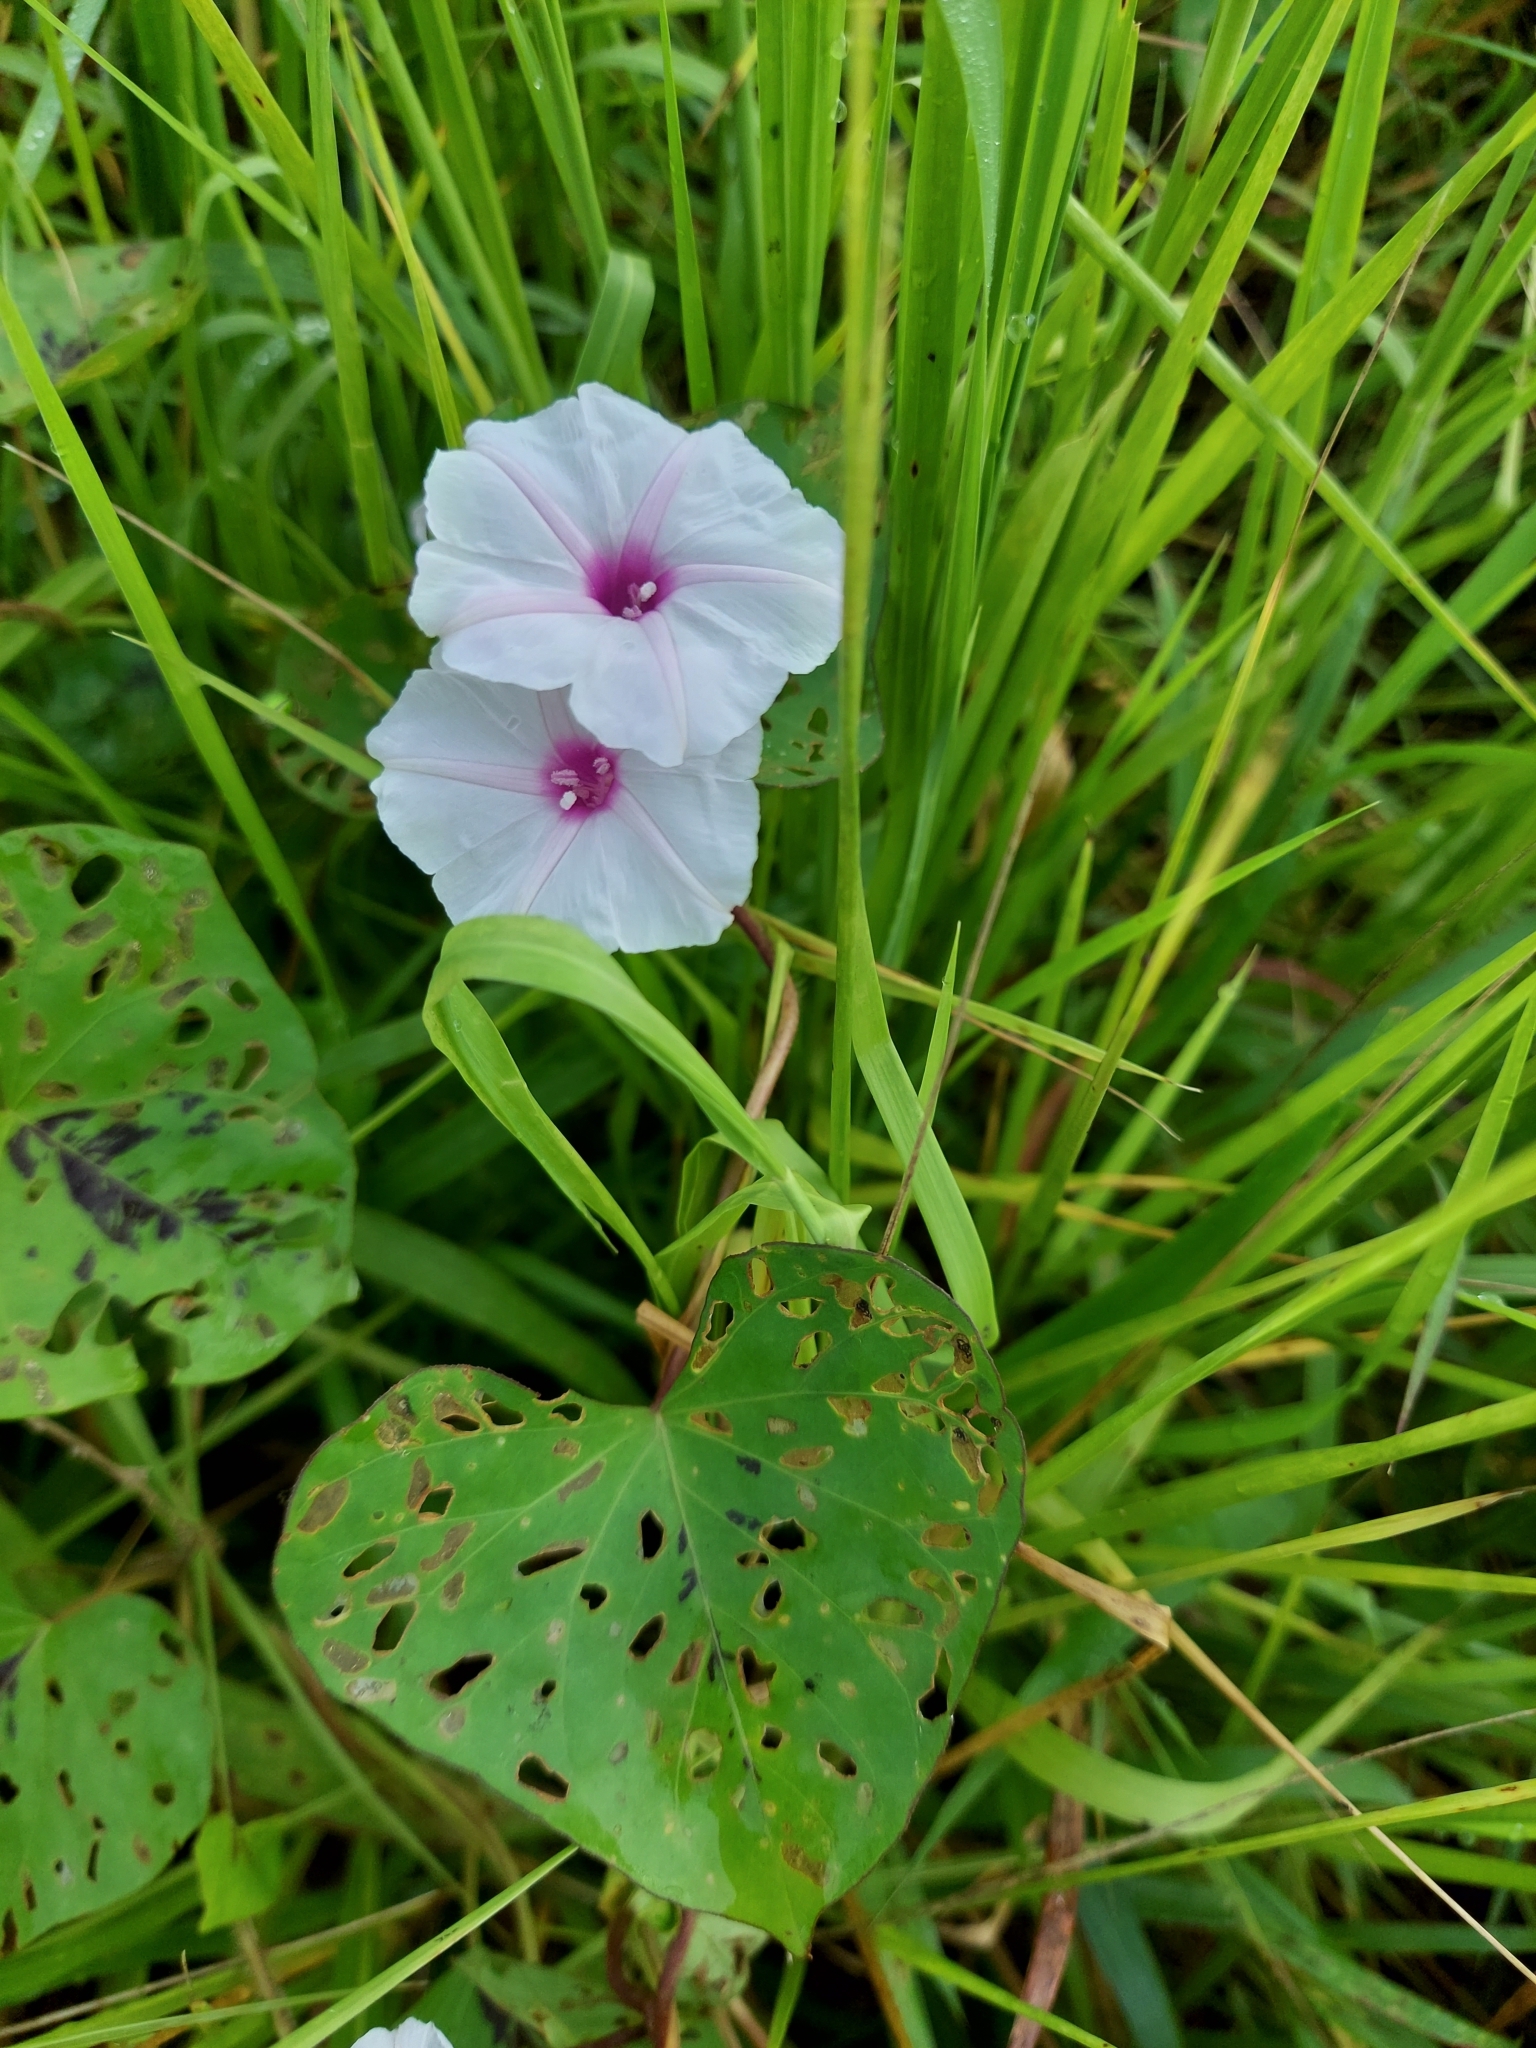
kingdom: Plantae
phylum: Tracheophyta
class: Magnoliopsida
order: Solanales
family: Convolvulaceae
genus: Ipomoea
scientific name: Ipomoea aquatica
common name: Swamp morning-glory
